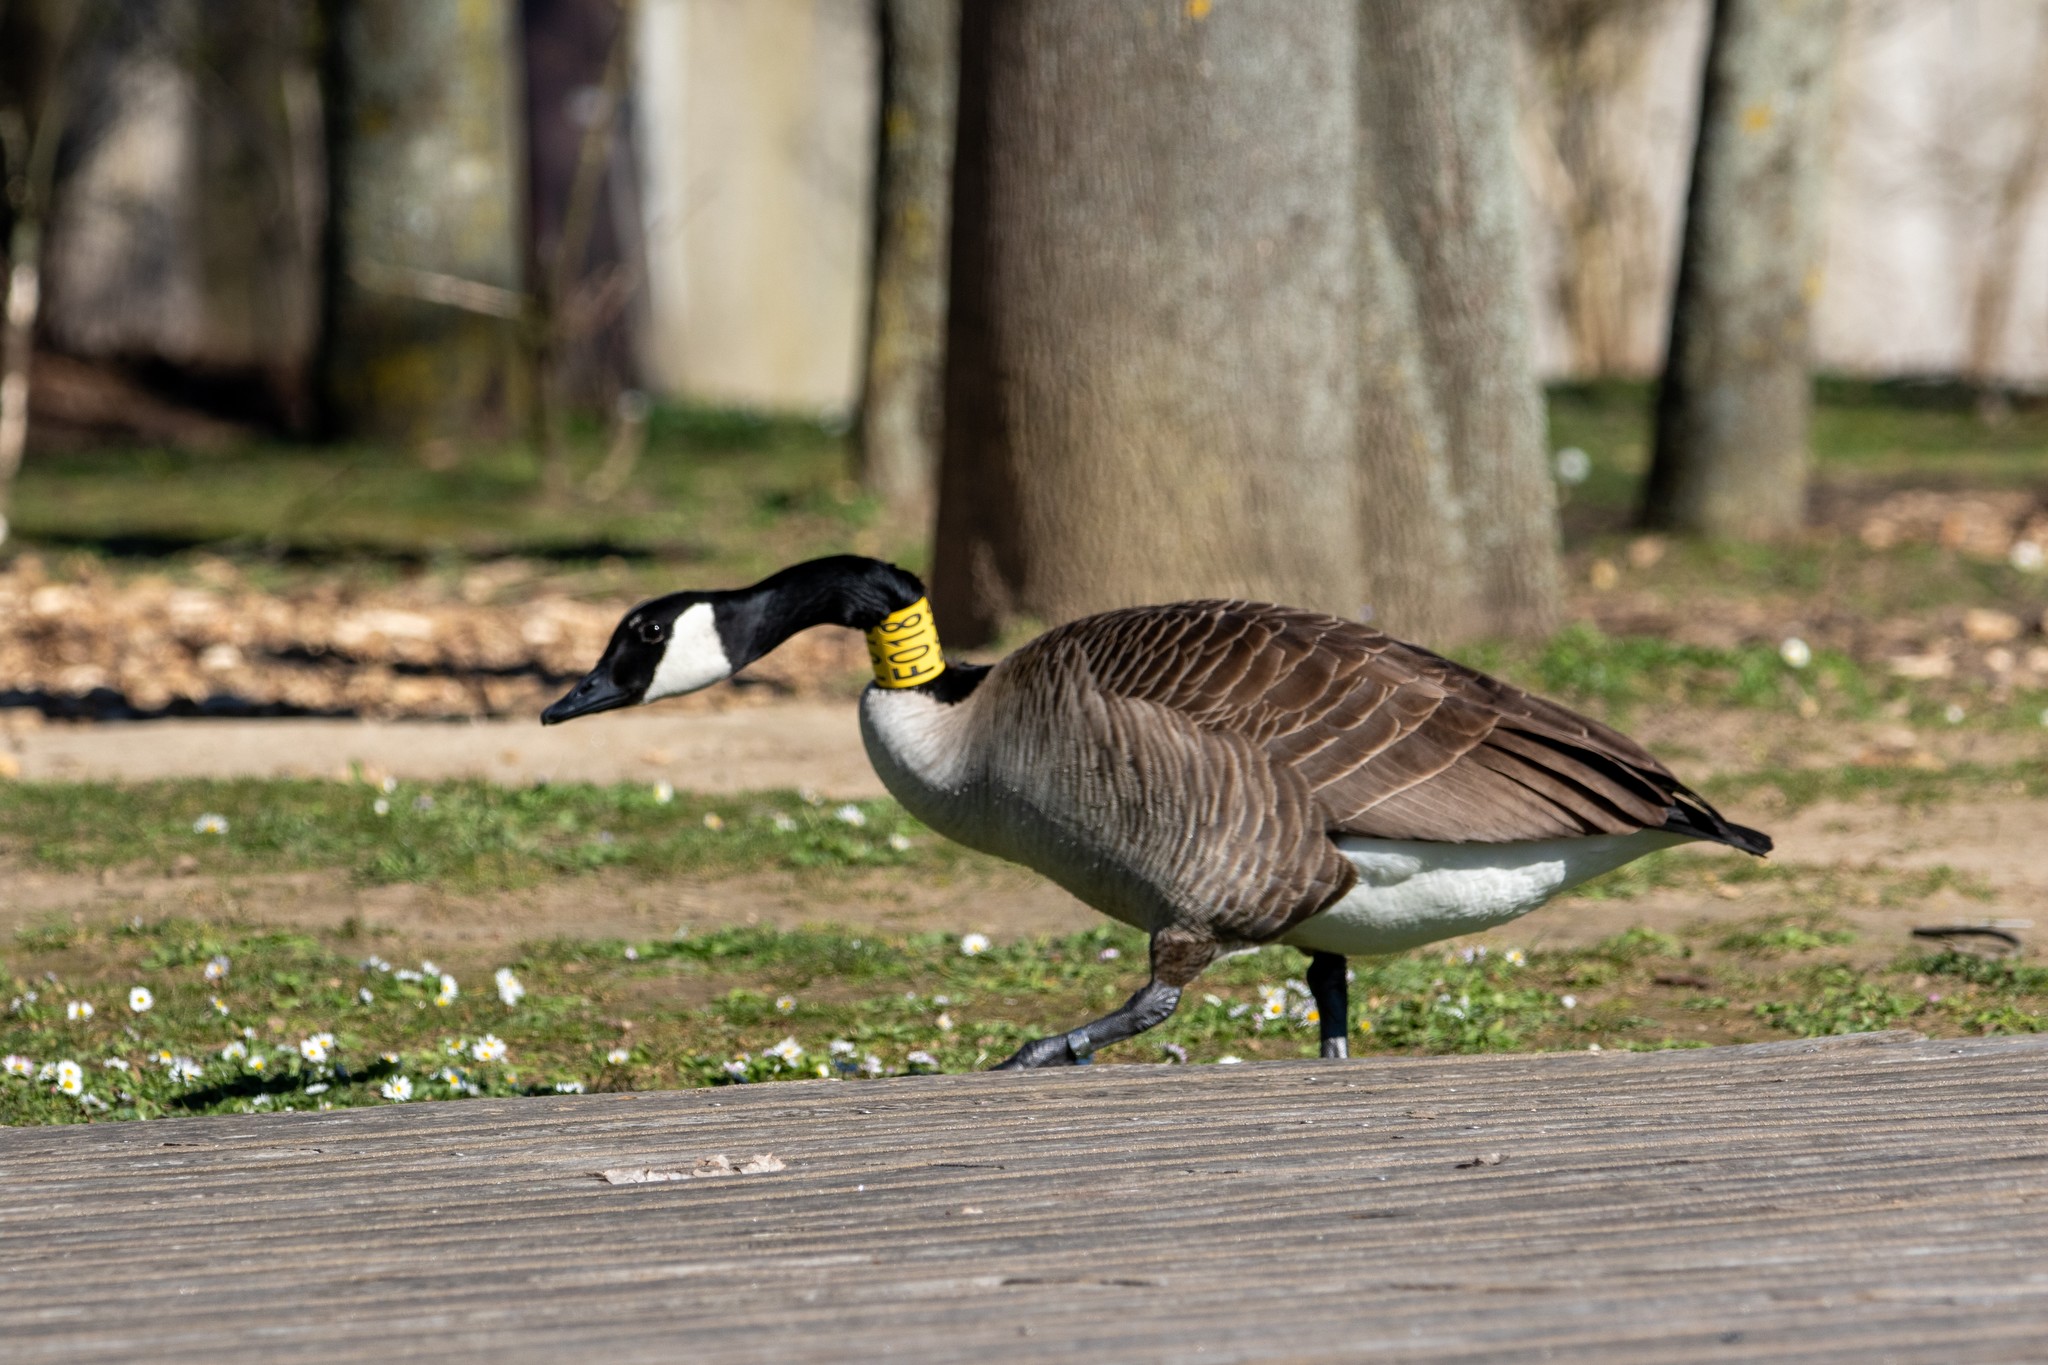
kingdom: Animalia
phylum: Chordata
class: Aves
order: Anseriformes
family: Anatidae
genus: Branta
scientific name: Branta canadensis
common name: Canada goose
